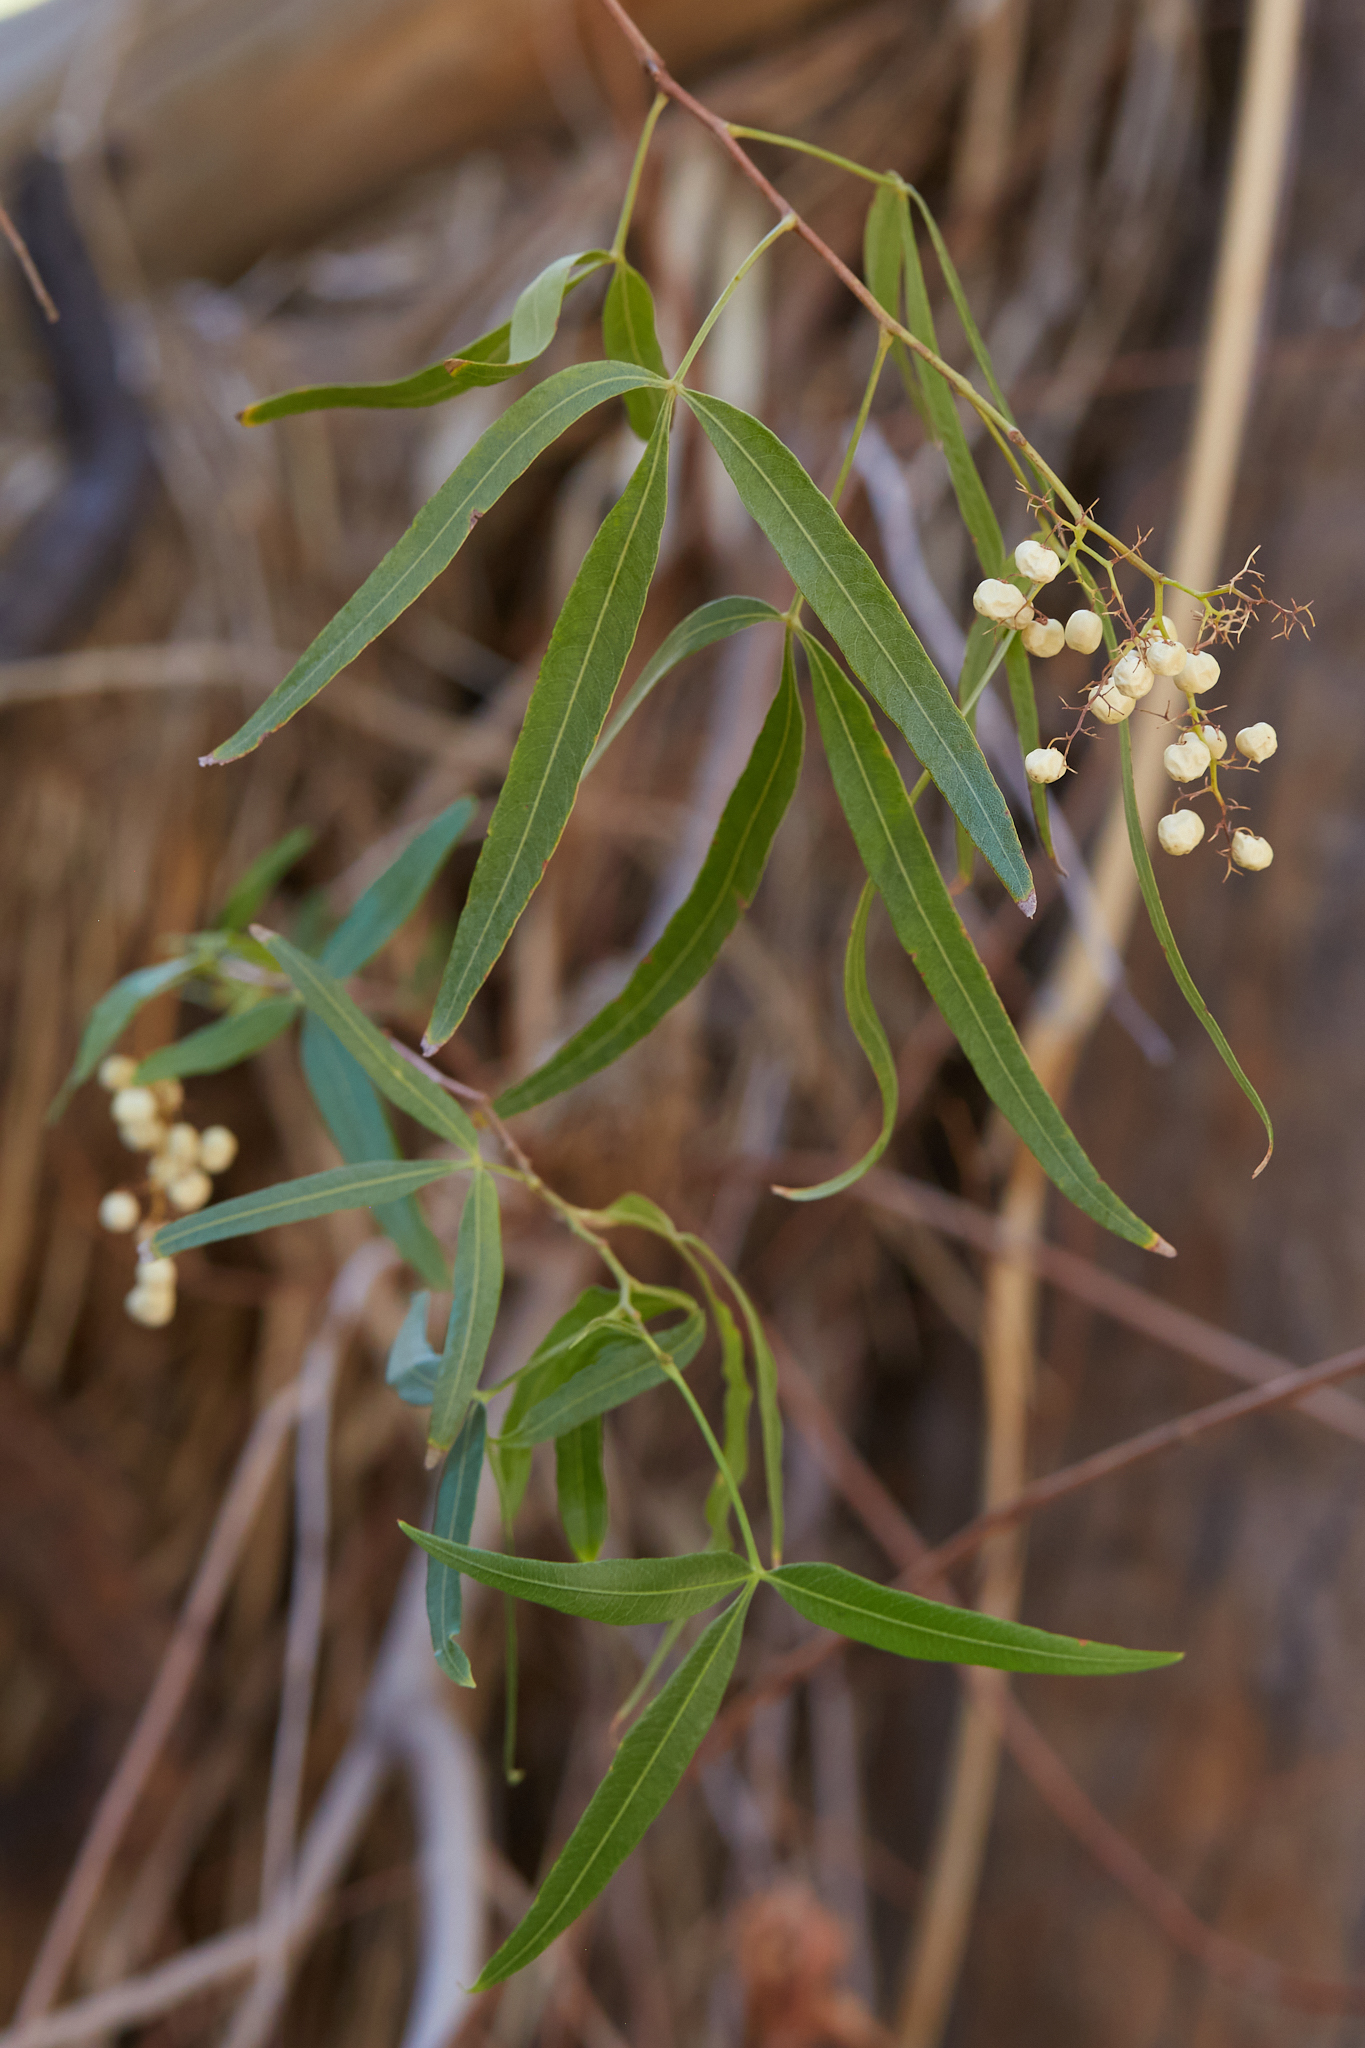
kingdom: Plantae
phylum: Tracheophyta
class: Magnoliopsida
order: Sapindales
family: Anacardiaceae
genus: Searsia
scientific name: Searsia lancea
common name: Cashew
